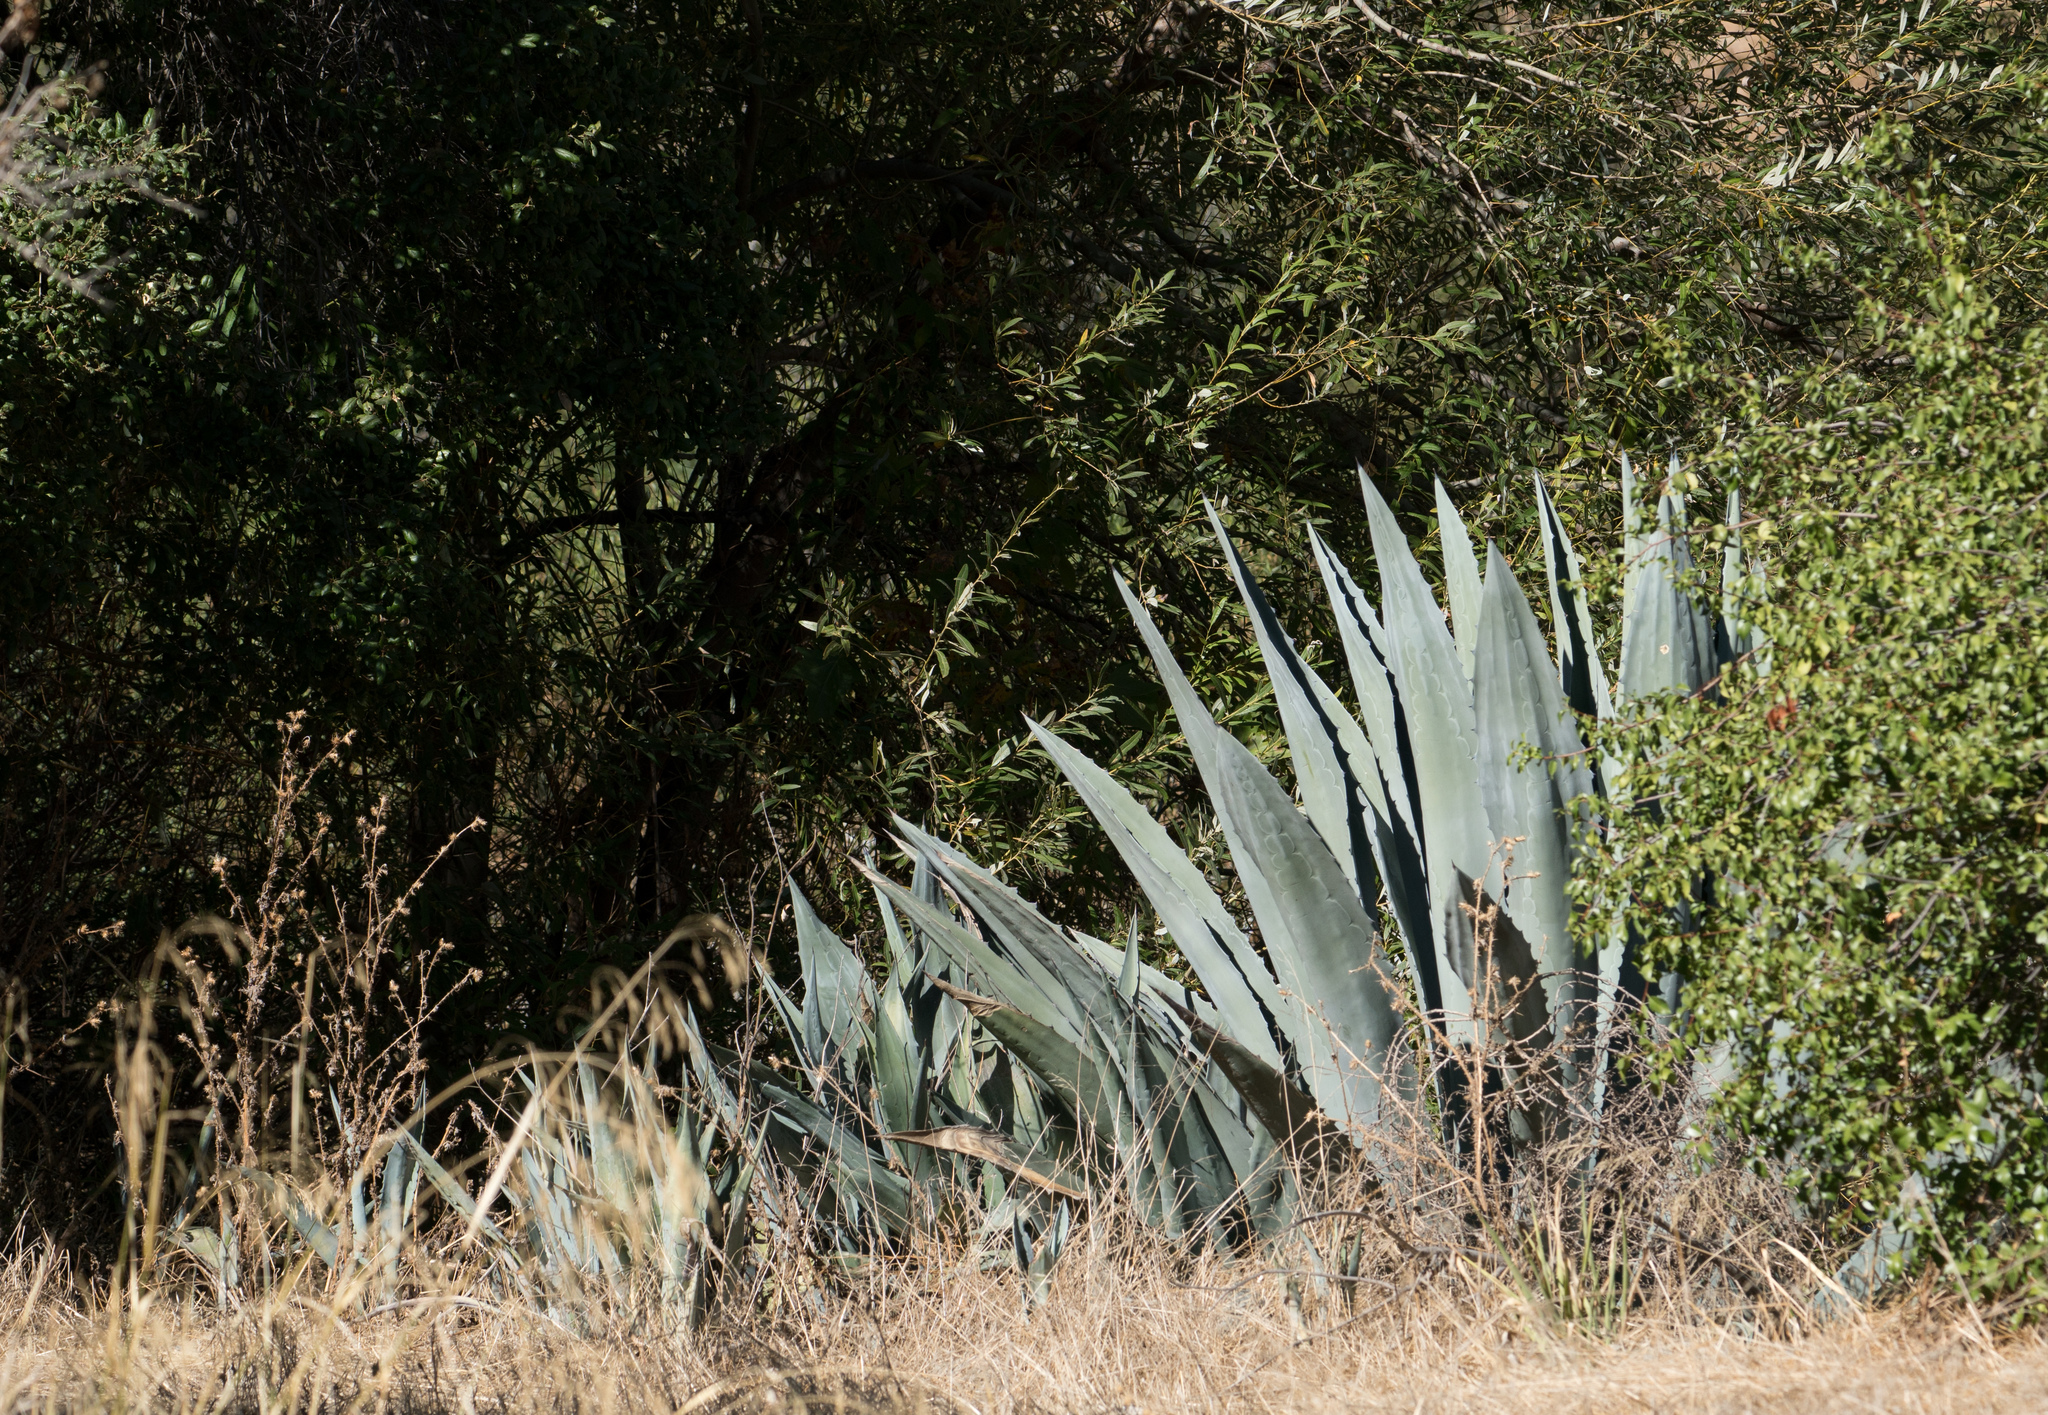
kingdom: Plantae
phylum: Tracheophyta
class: Liliopsida
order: Asparagales
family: Asparagaceae
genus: Agave
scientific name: Agave americana
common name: Centuryplant
